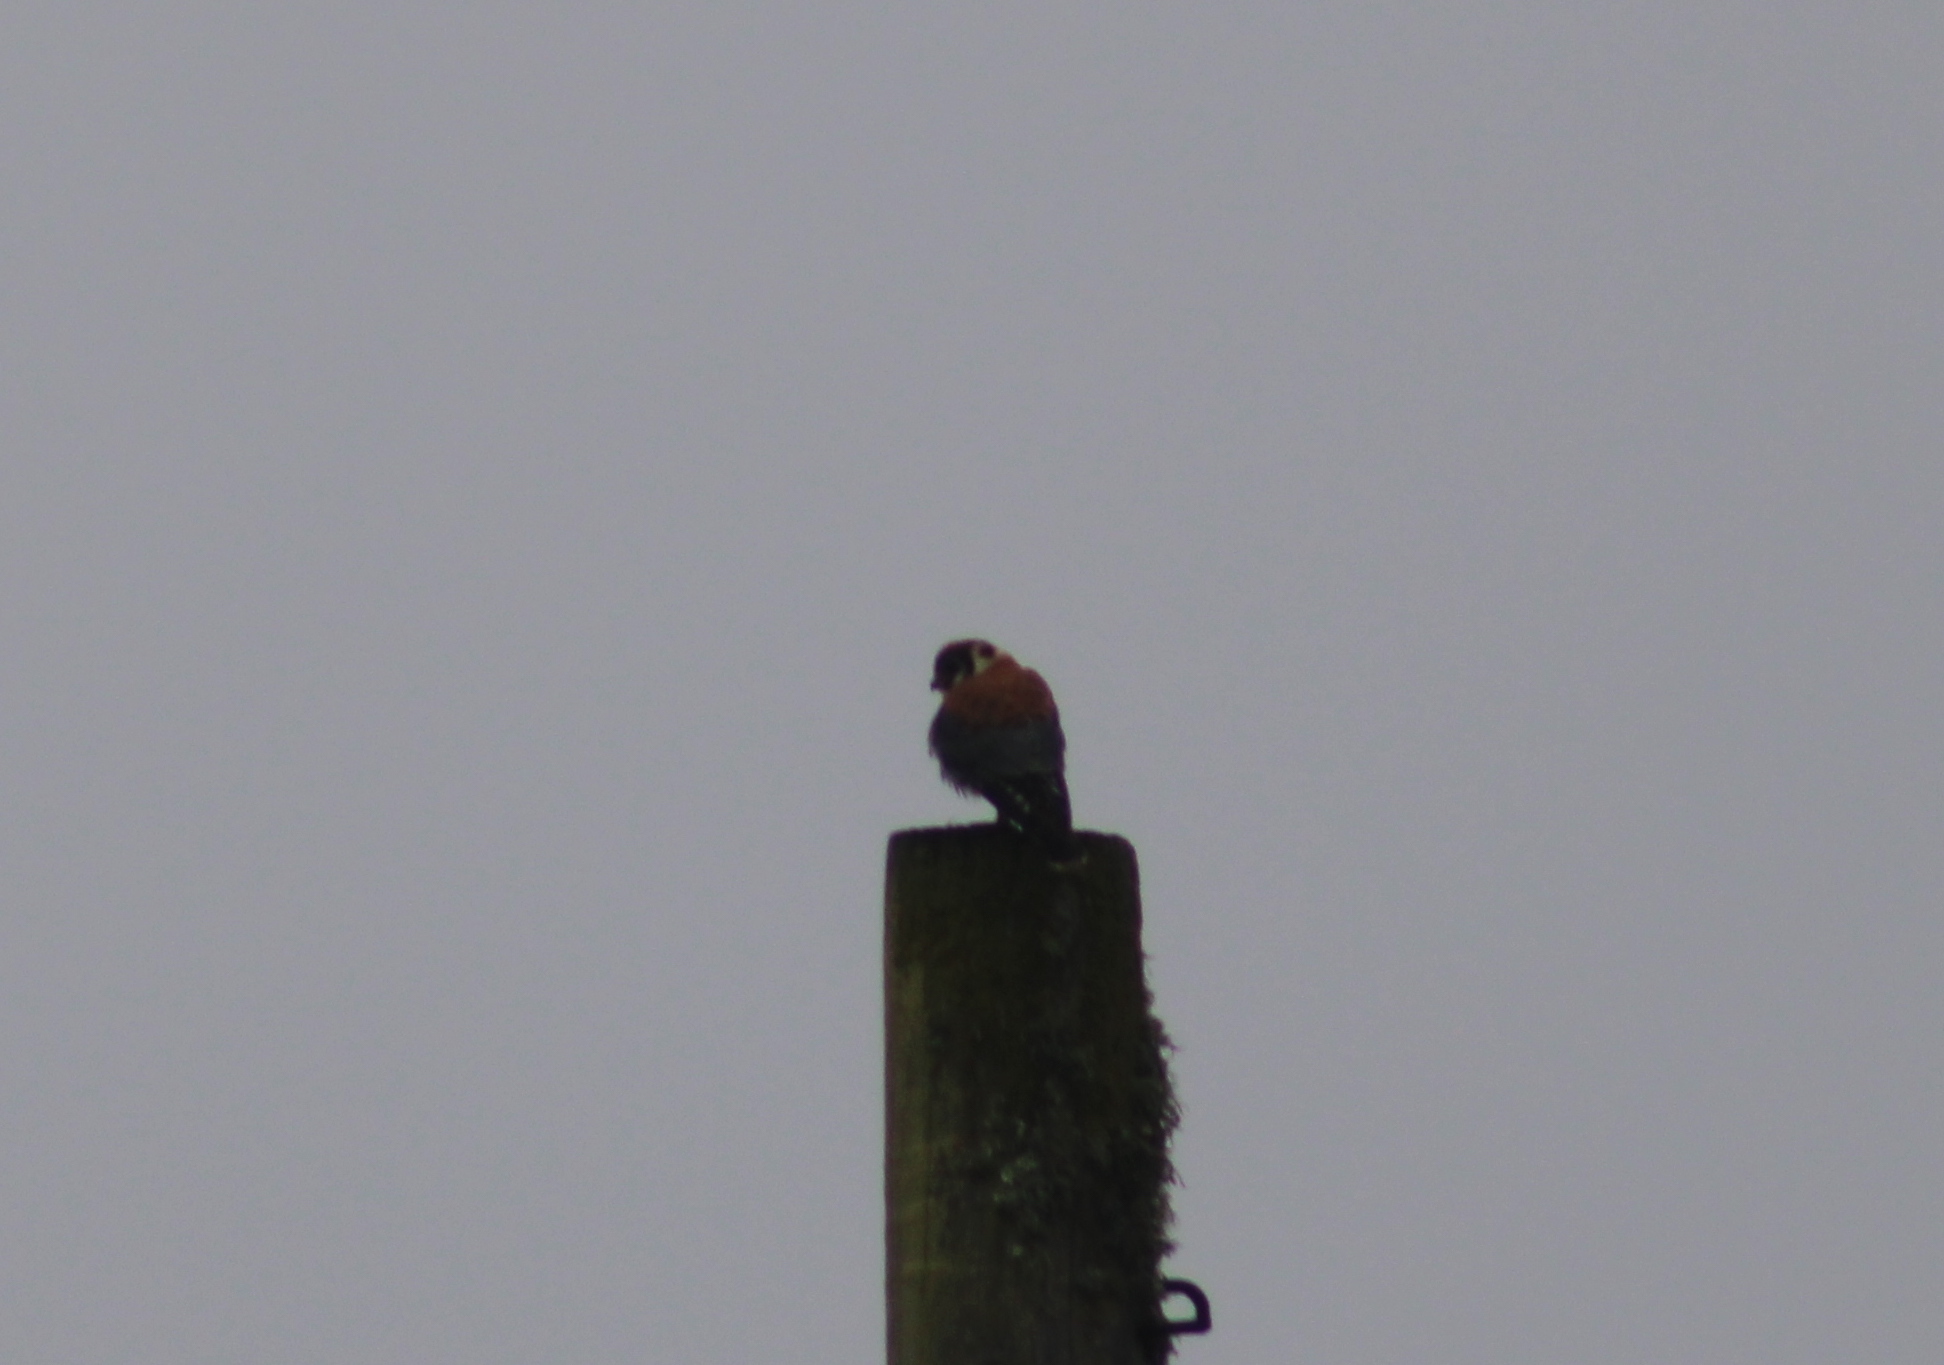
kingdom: Animalia
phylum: Chordata
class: Aves
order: Falconiformes
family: Falconidae
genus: Falco
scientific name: Falco sparverius
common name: American kestrel
